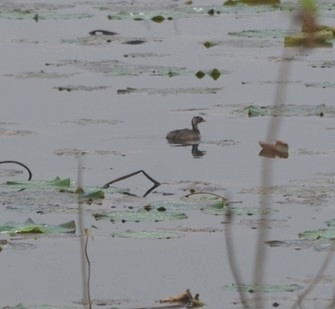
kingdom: Animalia
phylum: Chordata
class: Aves
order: Podicipediformes
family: Podicipedidae
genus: Tachybaptus
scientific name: Tachybaptus ruficollis
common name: Little grebe
